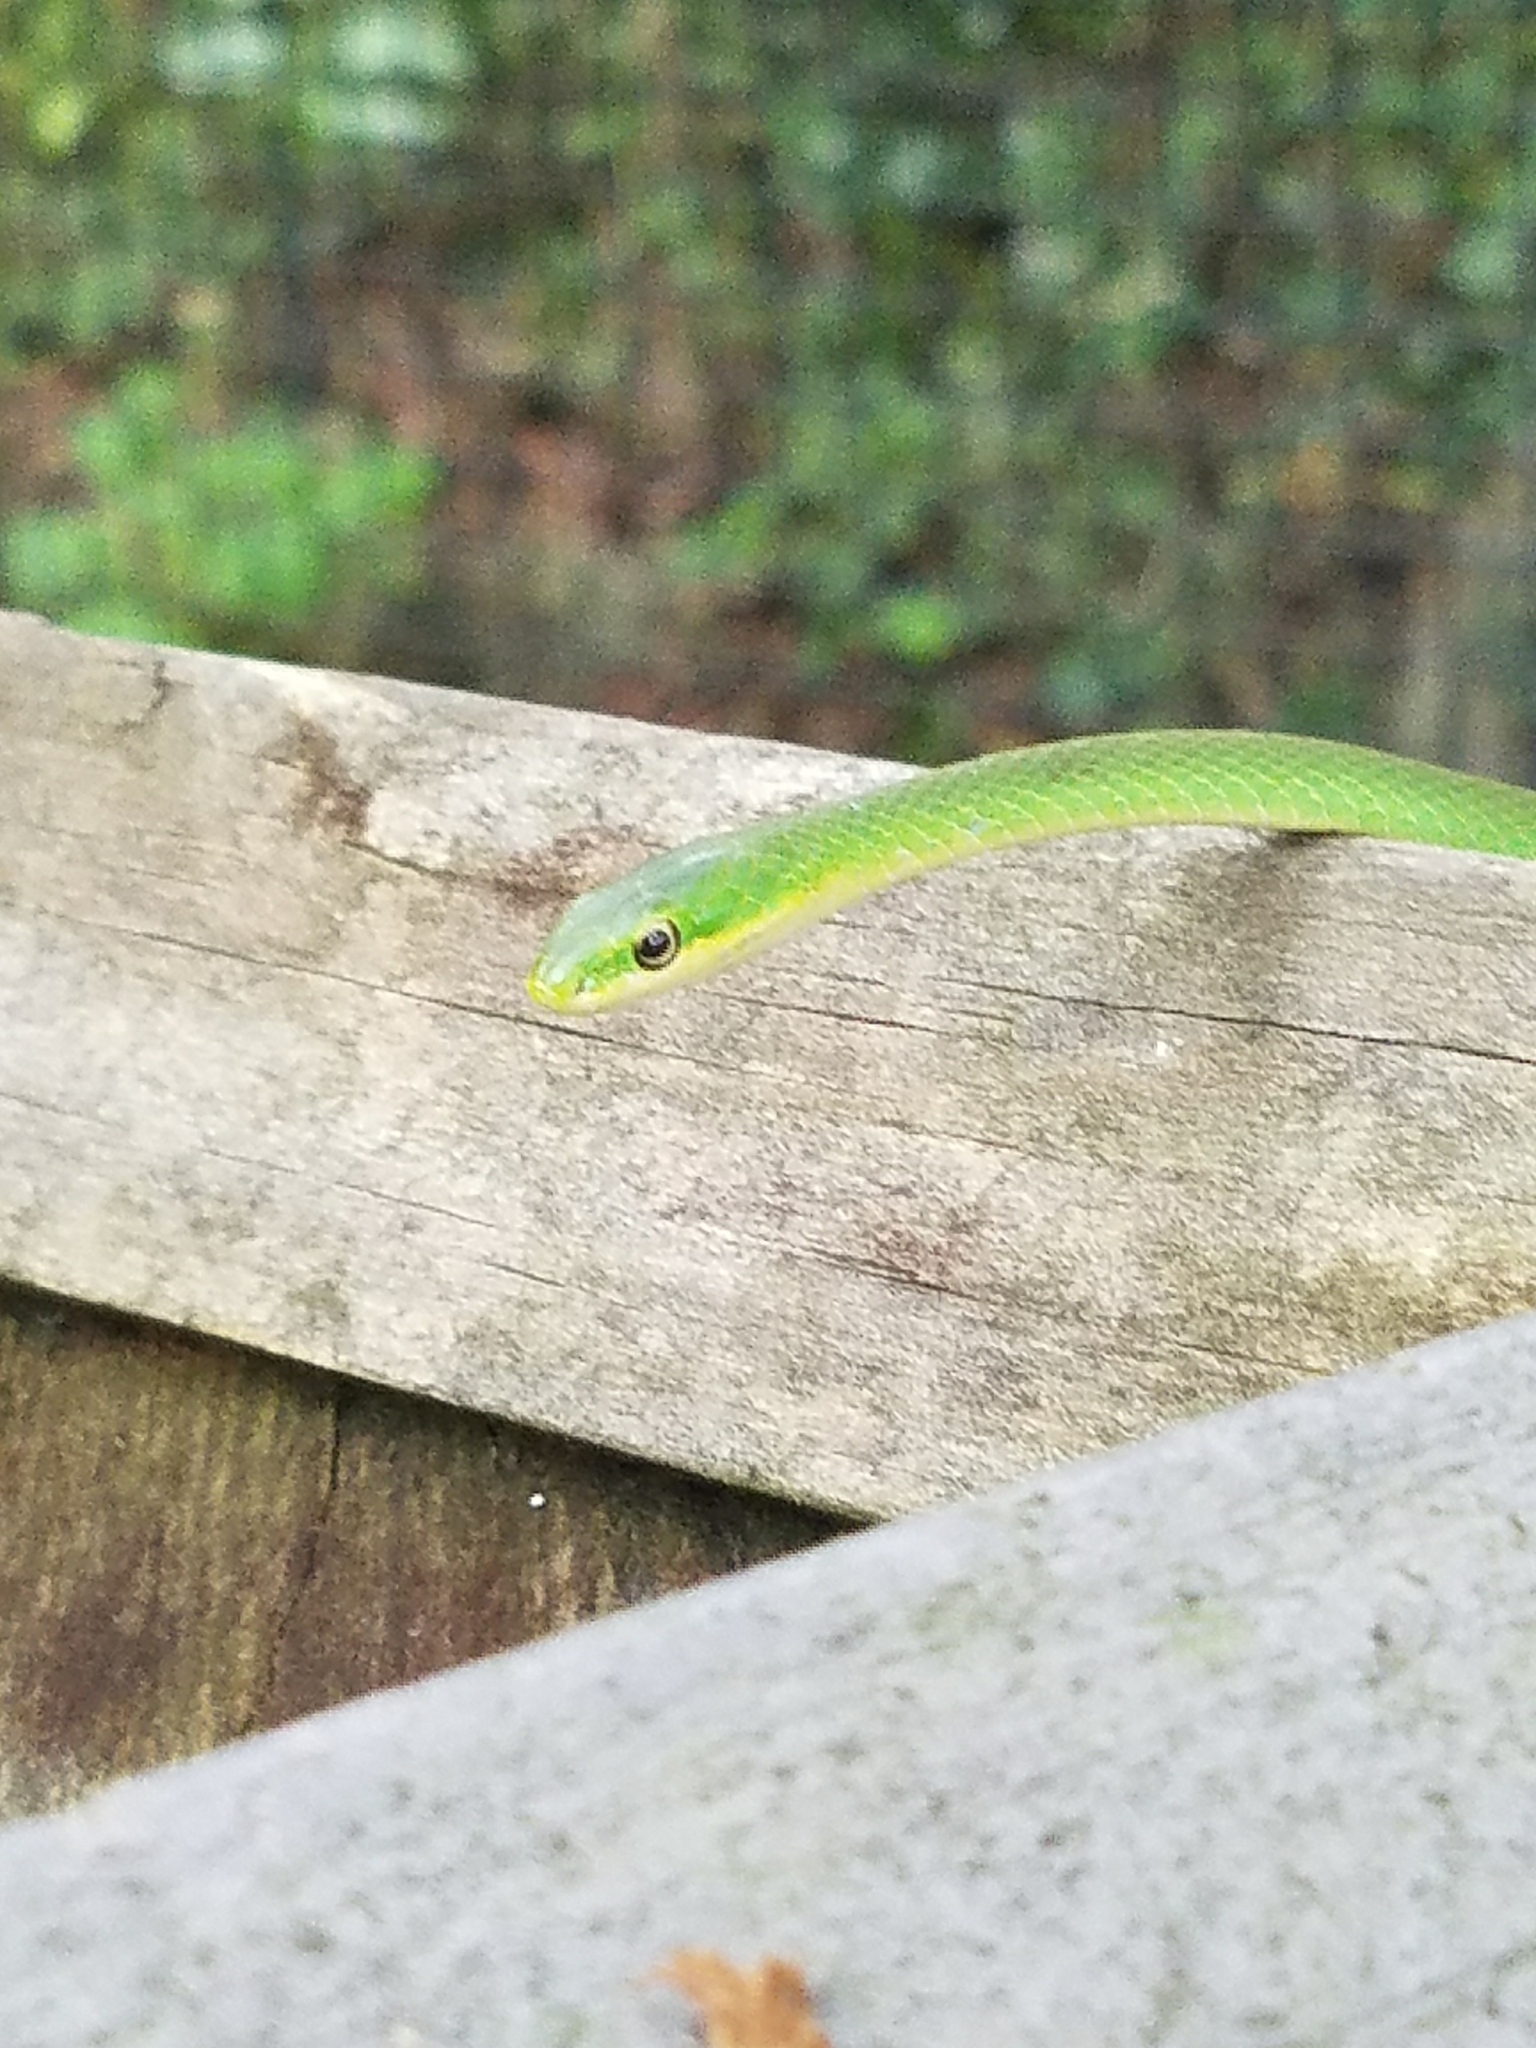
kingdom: Animalia
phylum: Chordata
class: Squamata
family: Colubridae
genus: Opheodrys
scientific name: Opheodrys aestivus
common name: Rough greensnake
